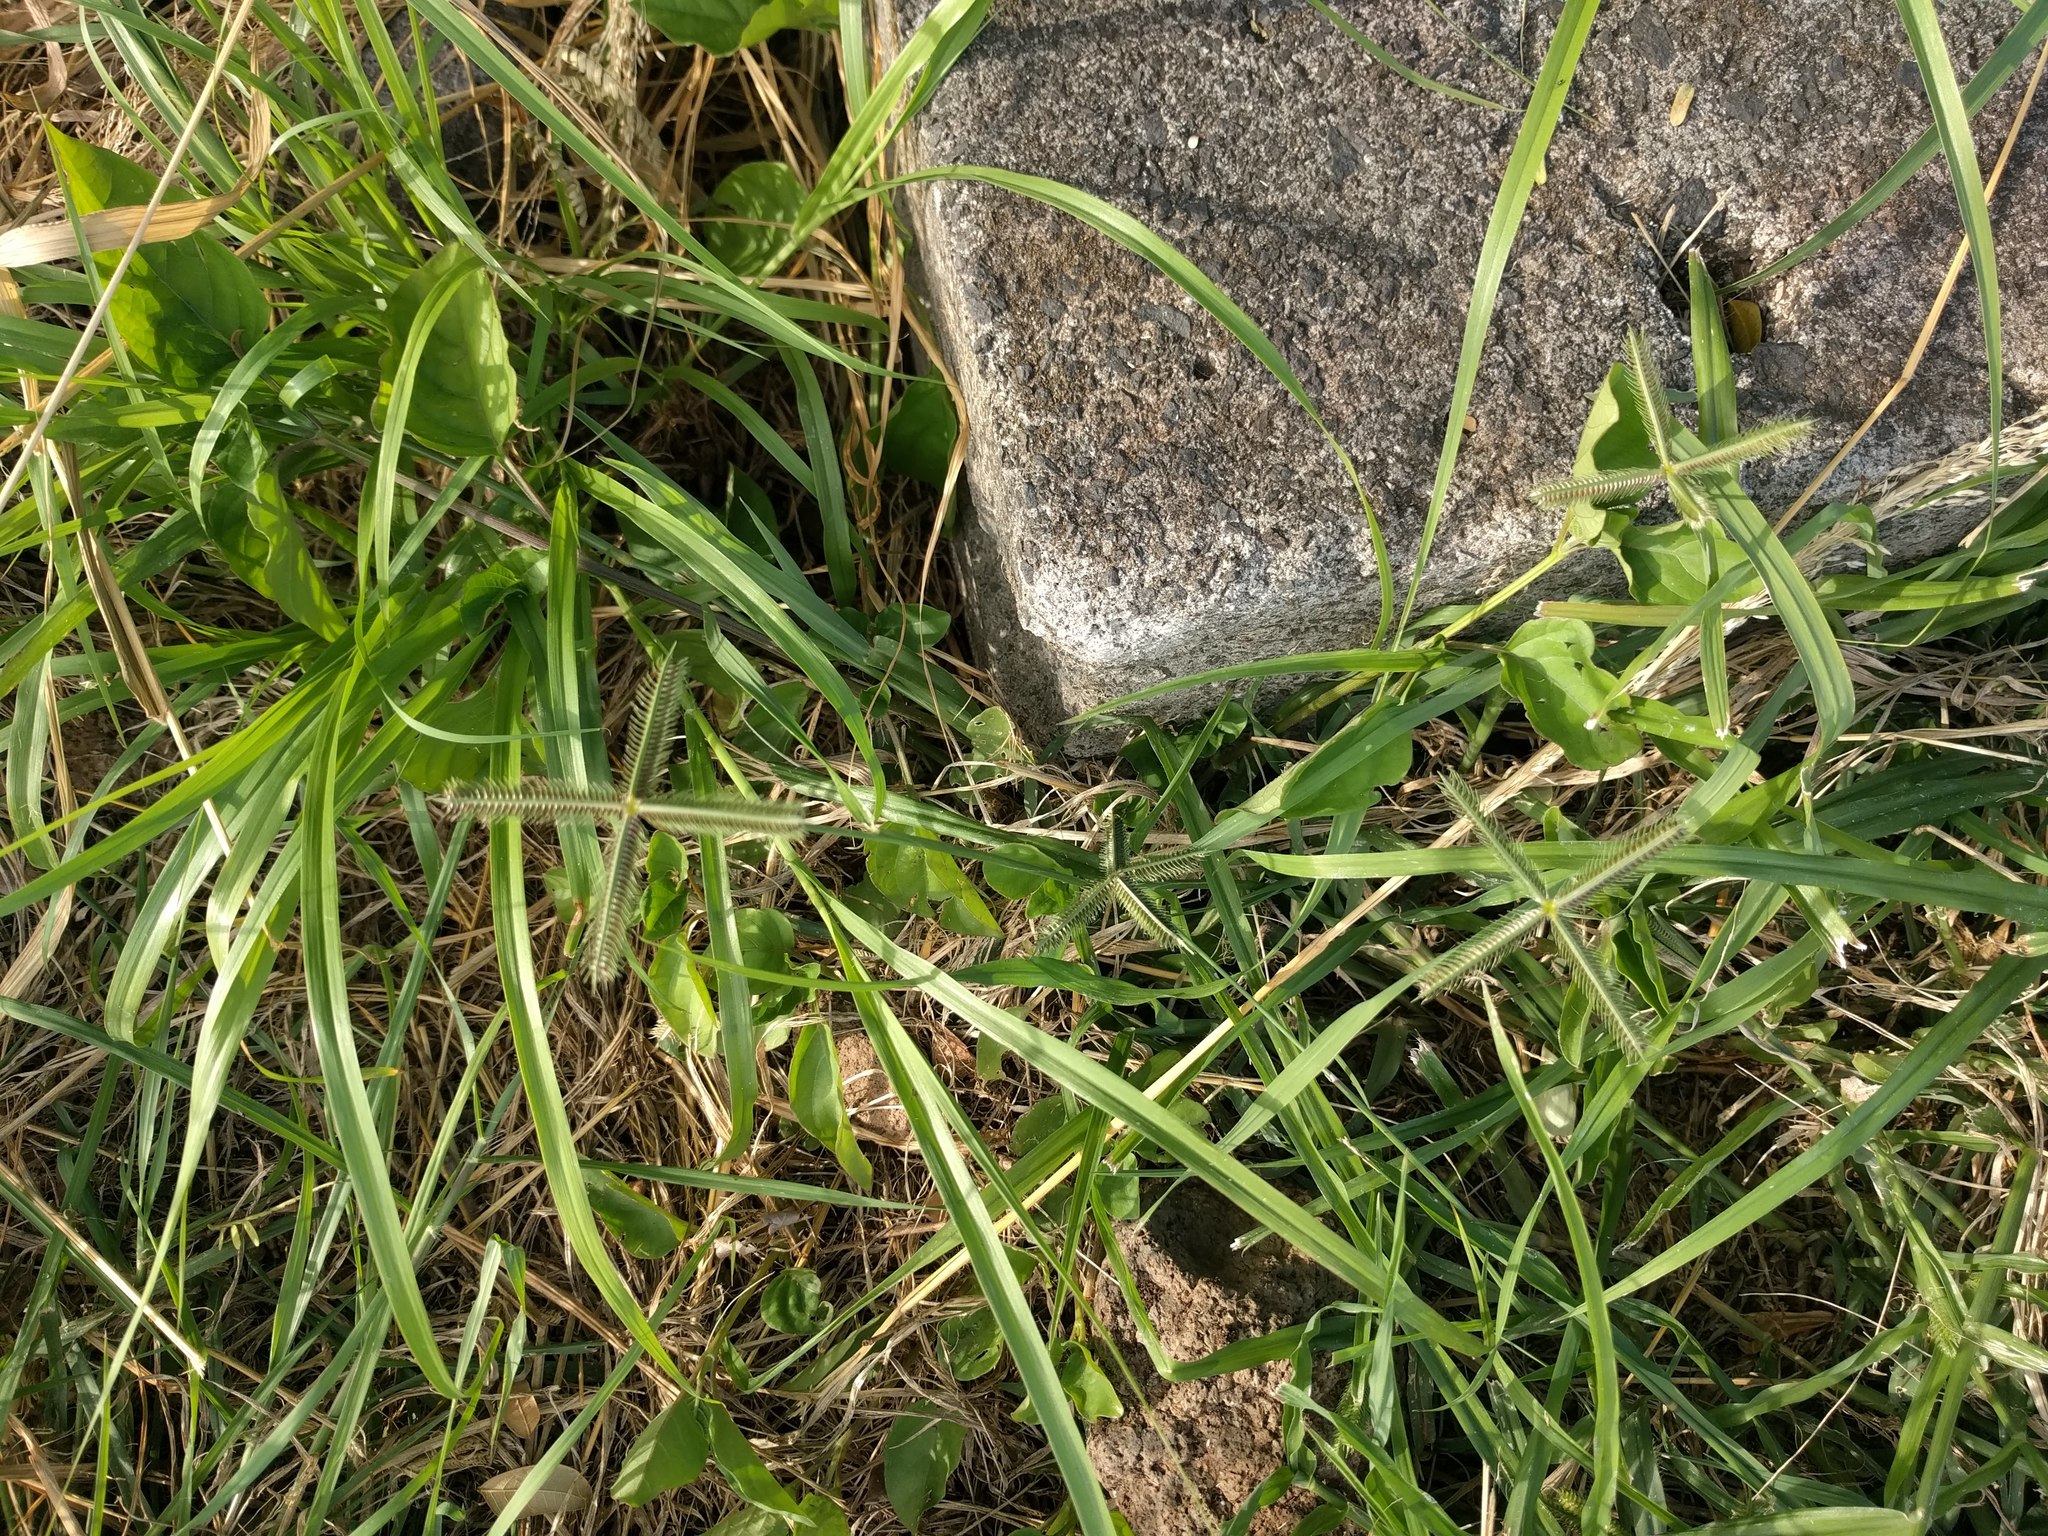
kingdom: Plantae
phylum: Tracheophyta
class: Liliopsida
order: Poales
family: Poaceae
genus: Dactyloctenium
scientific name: Dactyloctenium aegyptium
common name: Egyptian grass
